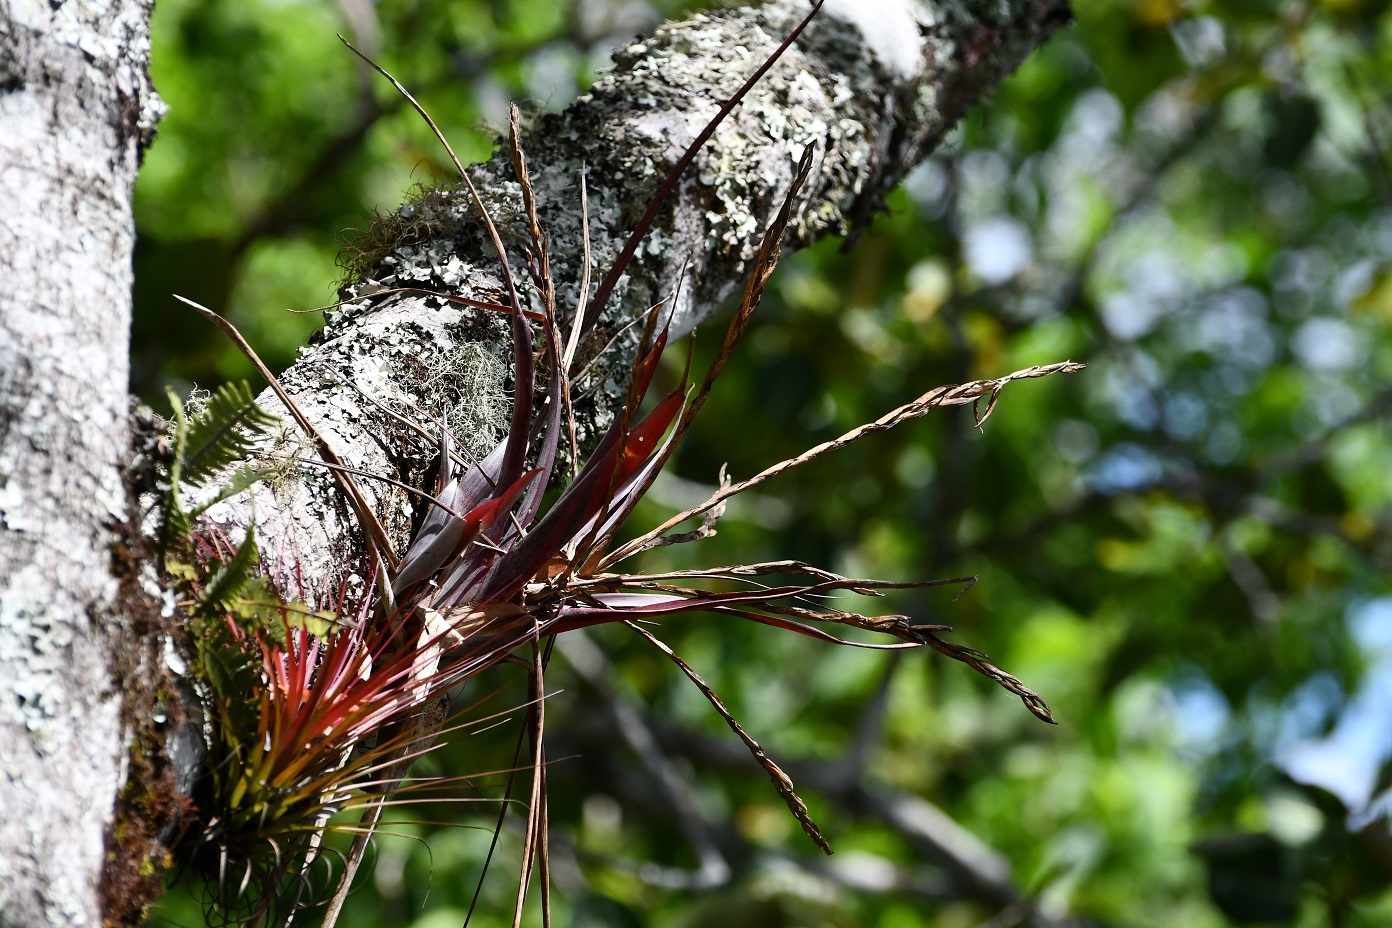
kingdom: Plantae
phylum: Tracheophyta
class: Liliopsida
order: Poales
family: Bromeliaceae
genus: Tillandsia
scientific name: Tillandsia flabellata
